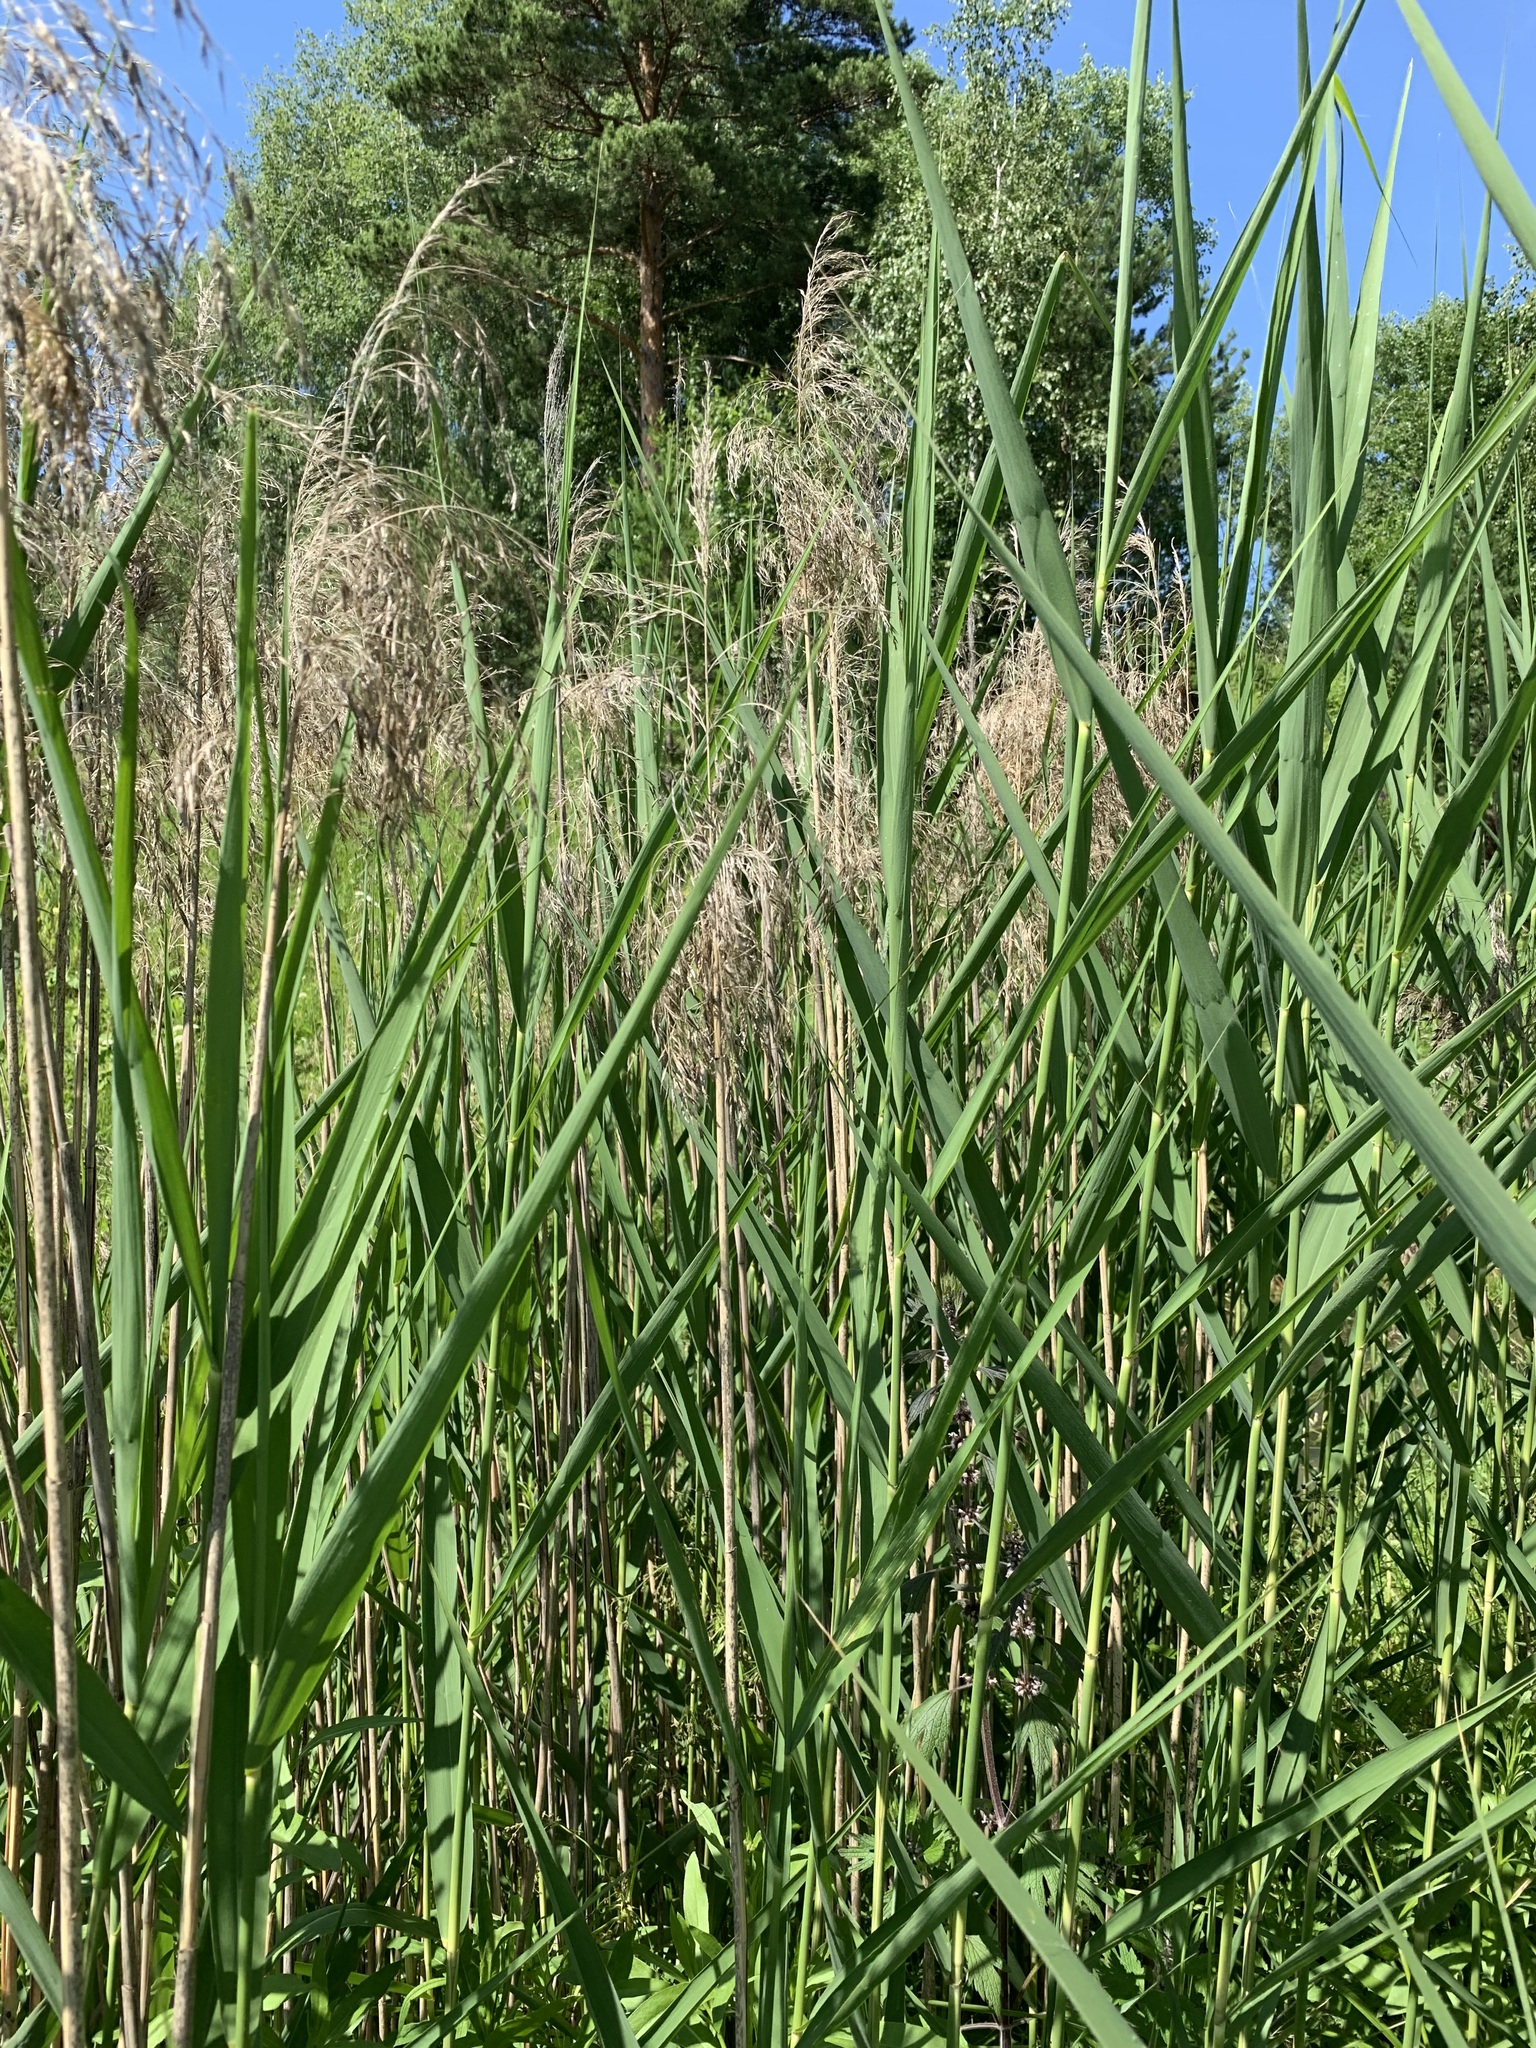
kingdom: Plantae
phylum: Tracheophyta
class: Liliopsida
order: Poales
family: Poaceae
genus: Phragmites
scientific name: Phragmites australis
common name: Common reed
